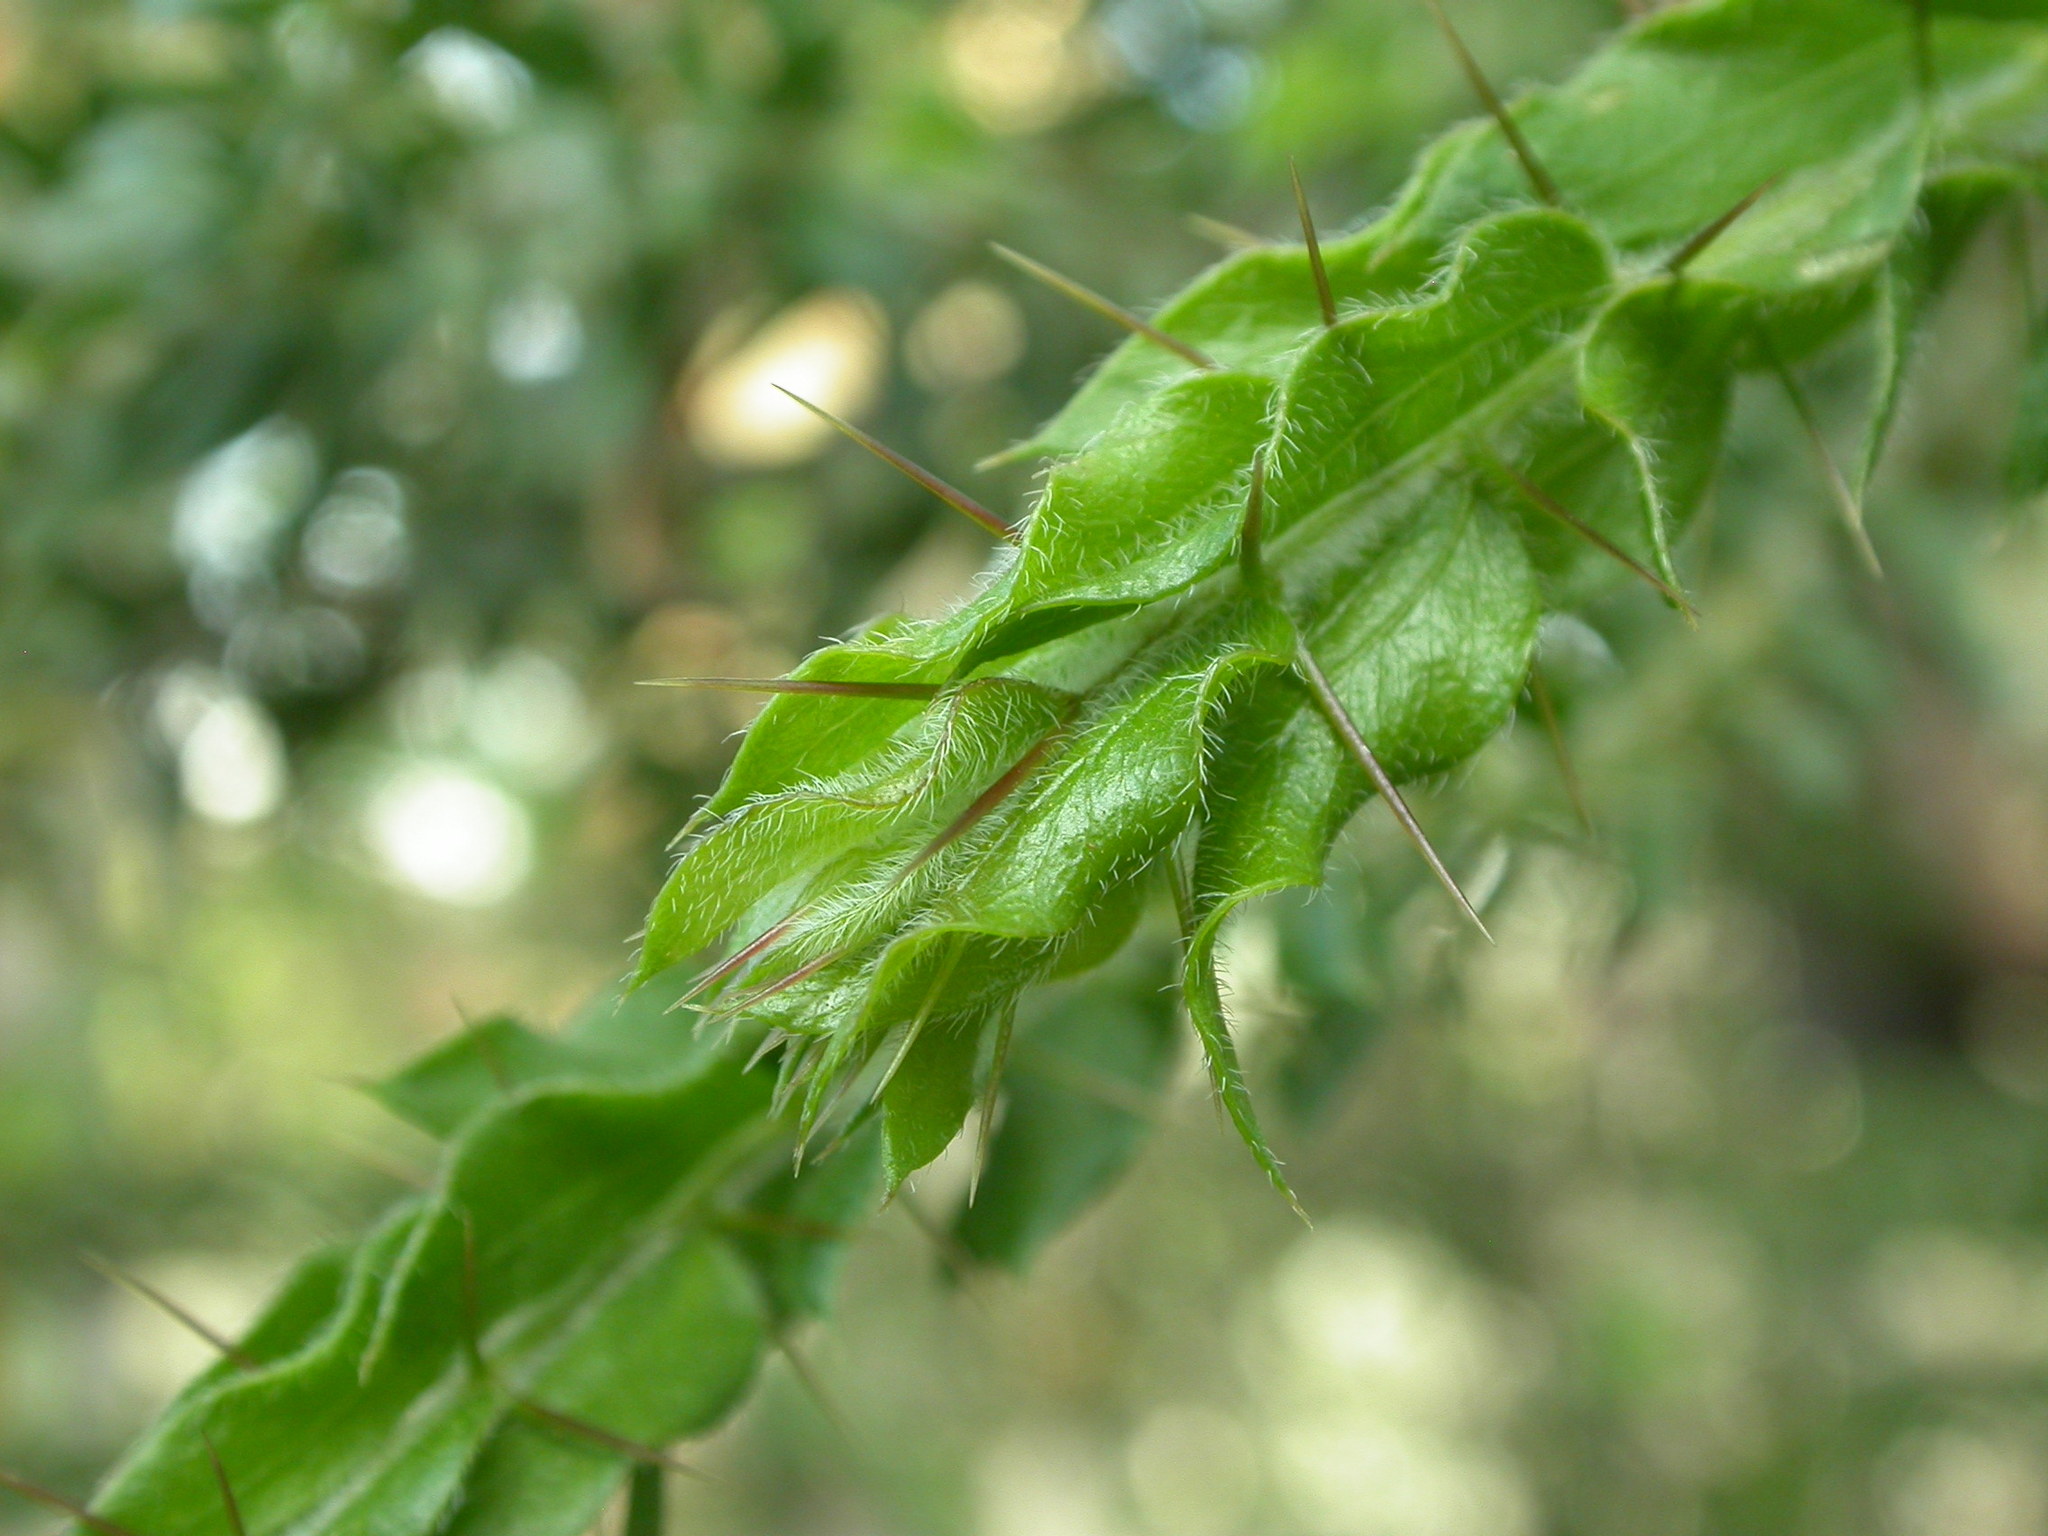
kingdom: Plantae
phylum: Tracheophyta
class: Magnoliopsida
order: Fabales
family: Fabaceae
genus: Acacia
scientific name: Acacia paradoxa
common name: Paradox acacia
